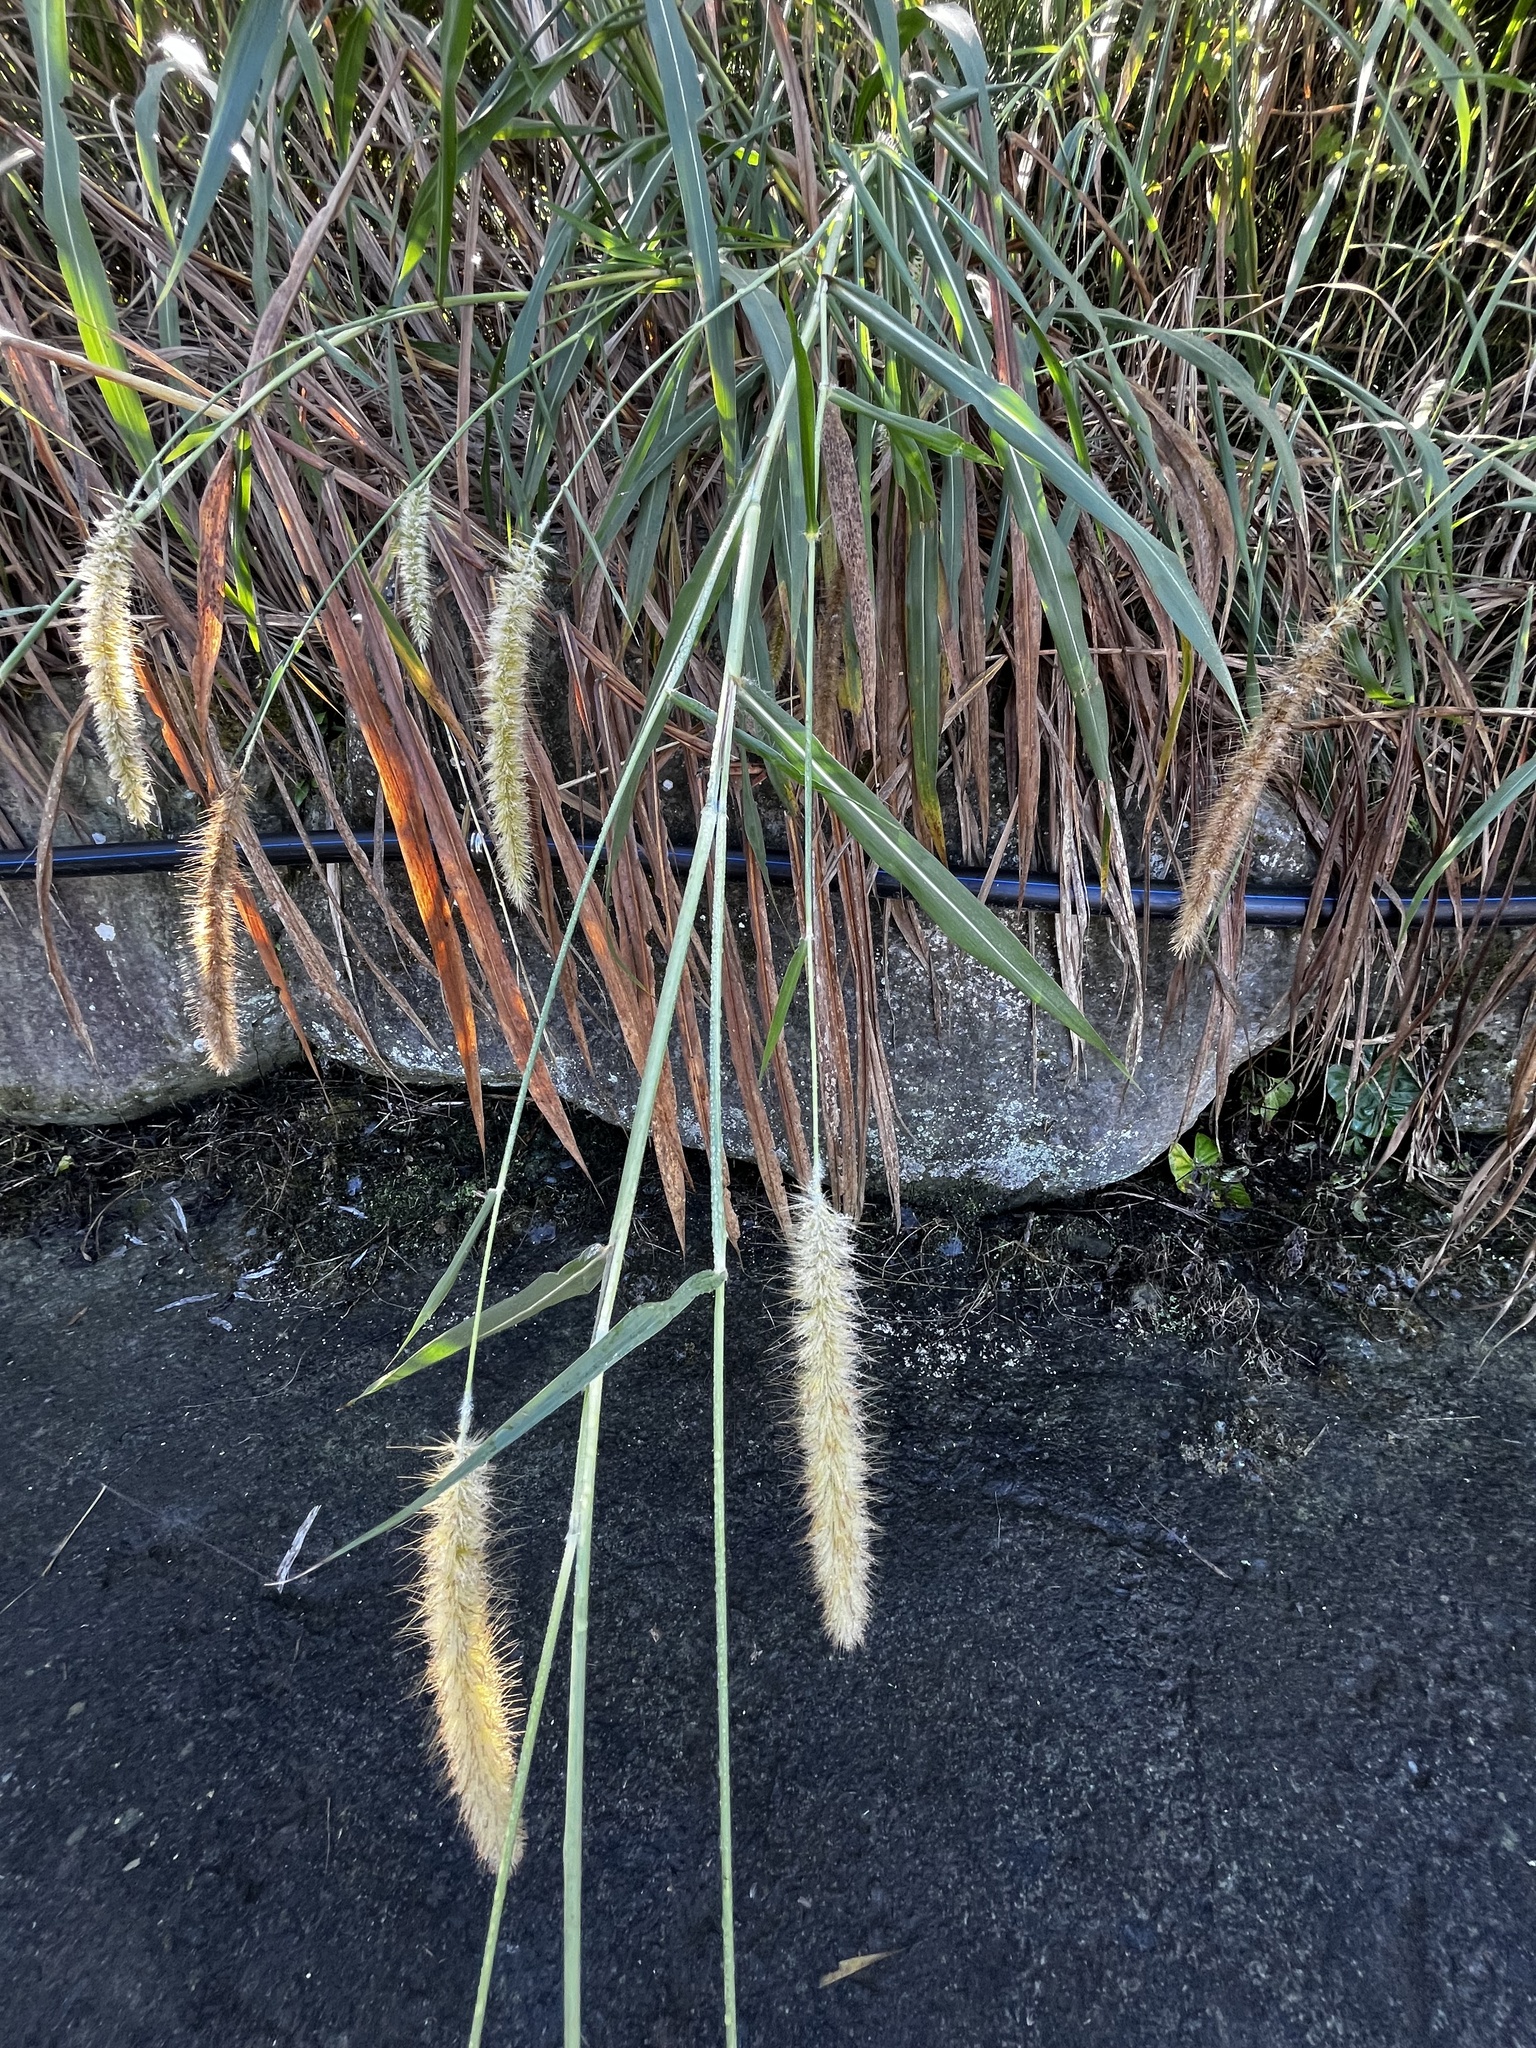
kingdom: Plantae
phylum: Tracheophyta
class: Liliopsida
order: Poales
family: Poaceae
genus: Cenchrus
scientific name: Cenchrus purpureus
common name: Elephant grass
